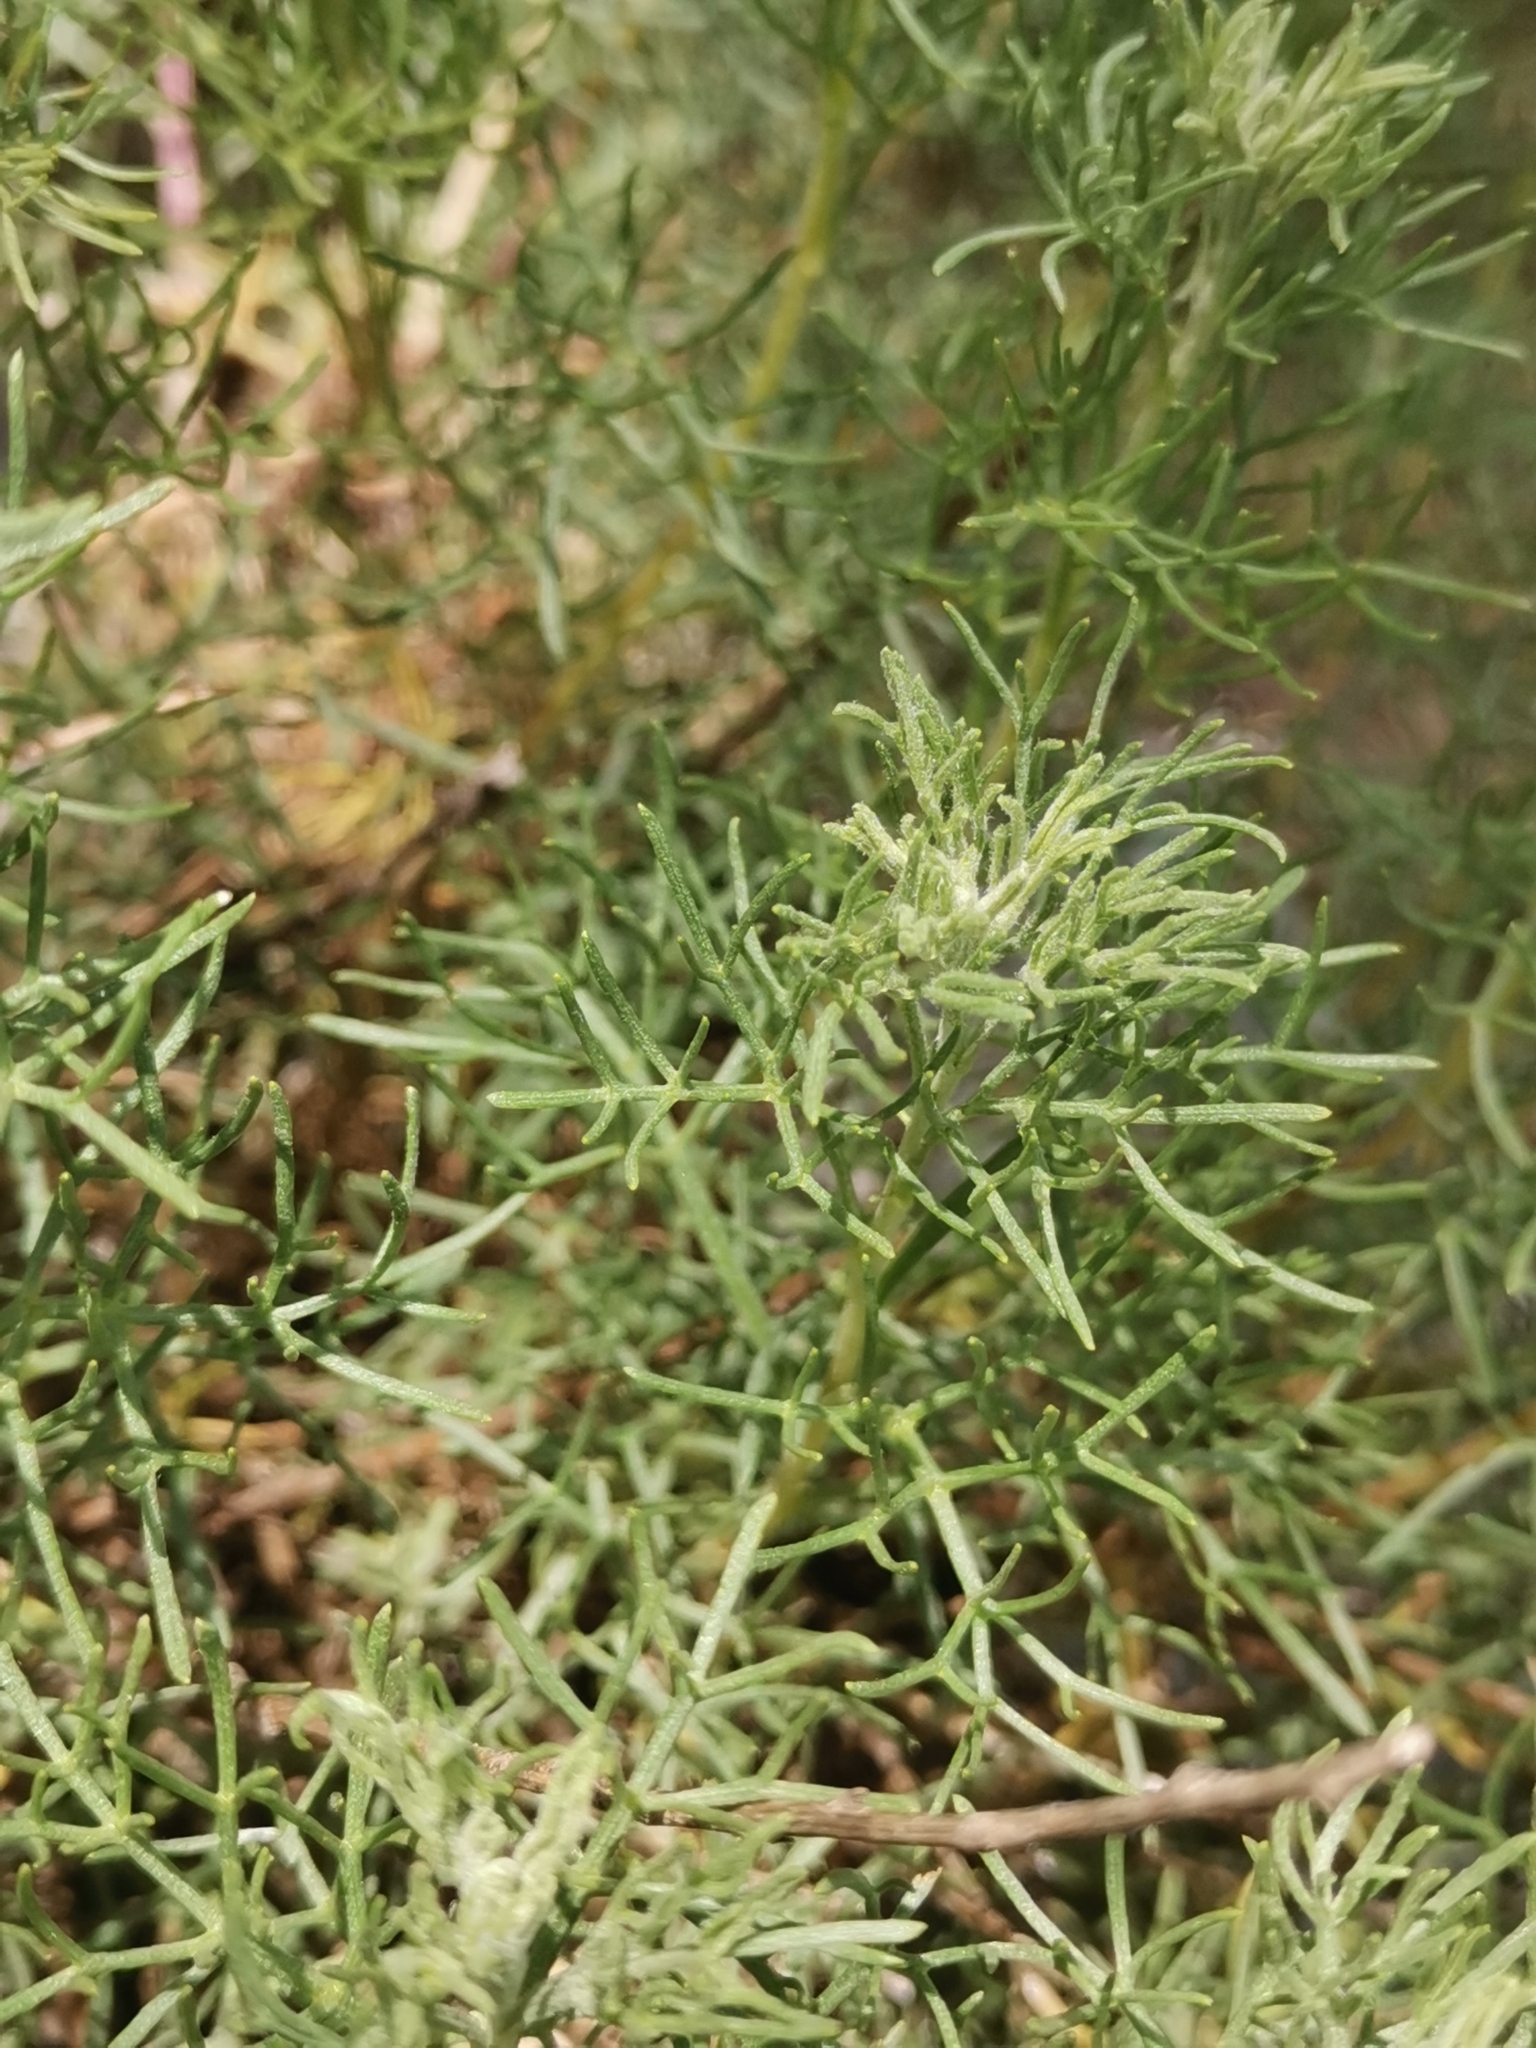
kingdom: Plantae
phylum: Tracheophyta
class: Magnoliopsida
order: Asterales
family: Asteraceae
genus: Artemisia
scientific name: Artemisia alba
